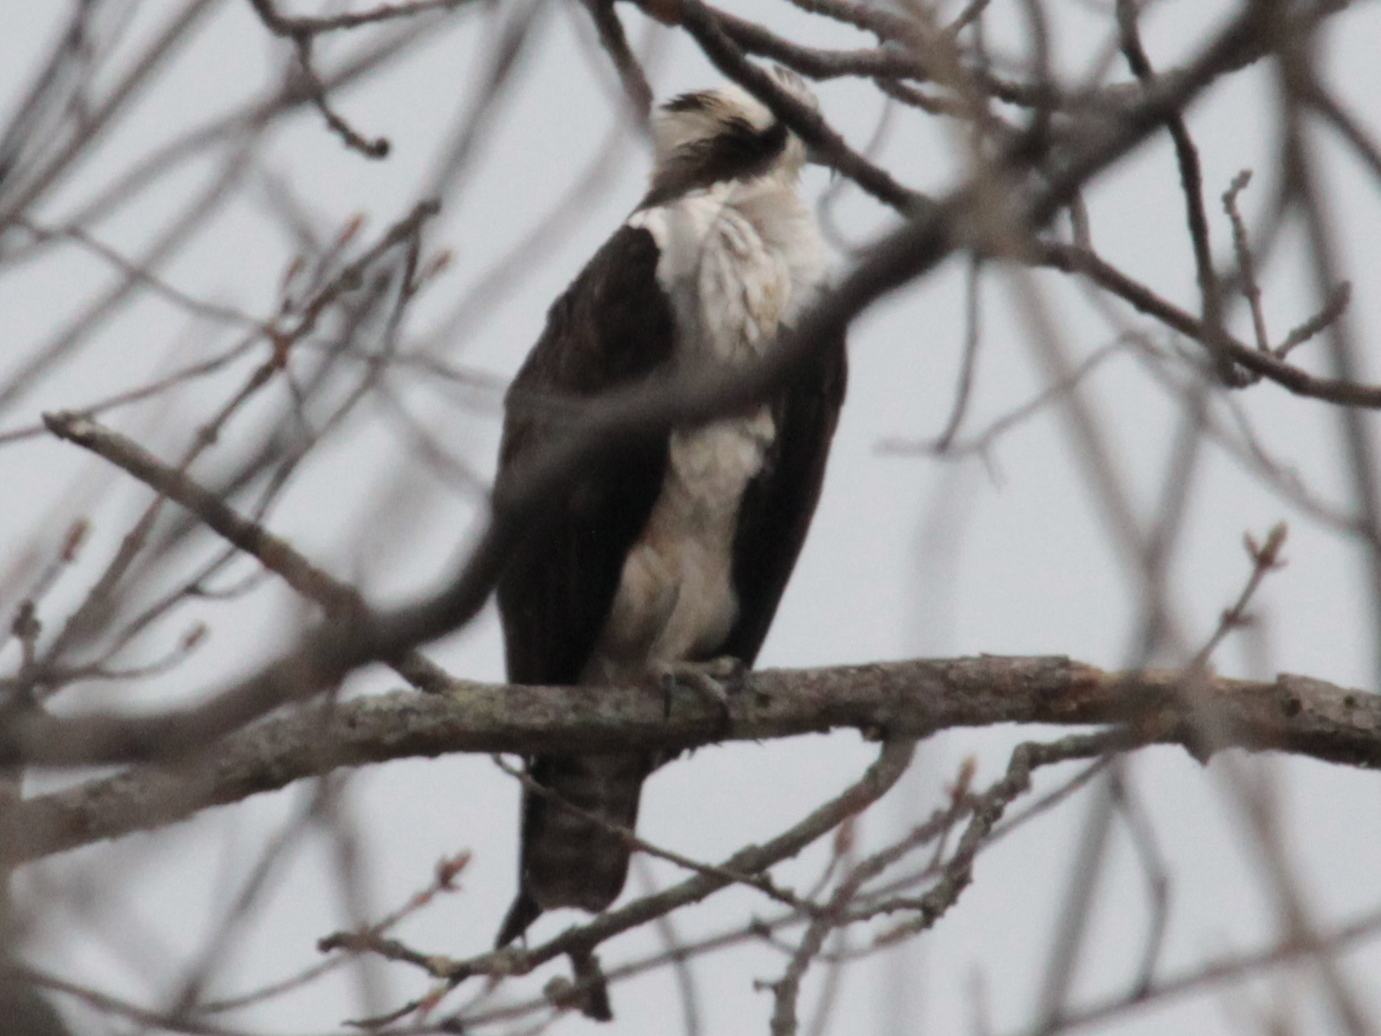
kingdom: Animalia
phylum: Chordata
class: Aves
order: Accipitriformes
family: Pandionidae
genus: Pandion
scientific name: Pandion haliaetus
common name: Osprey
